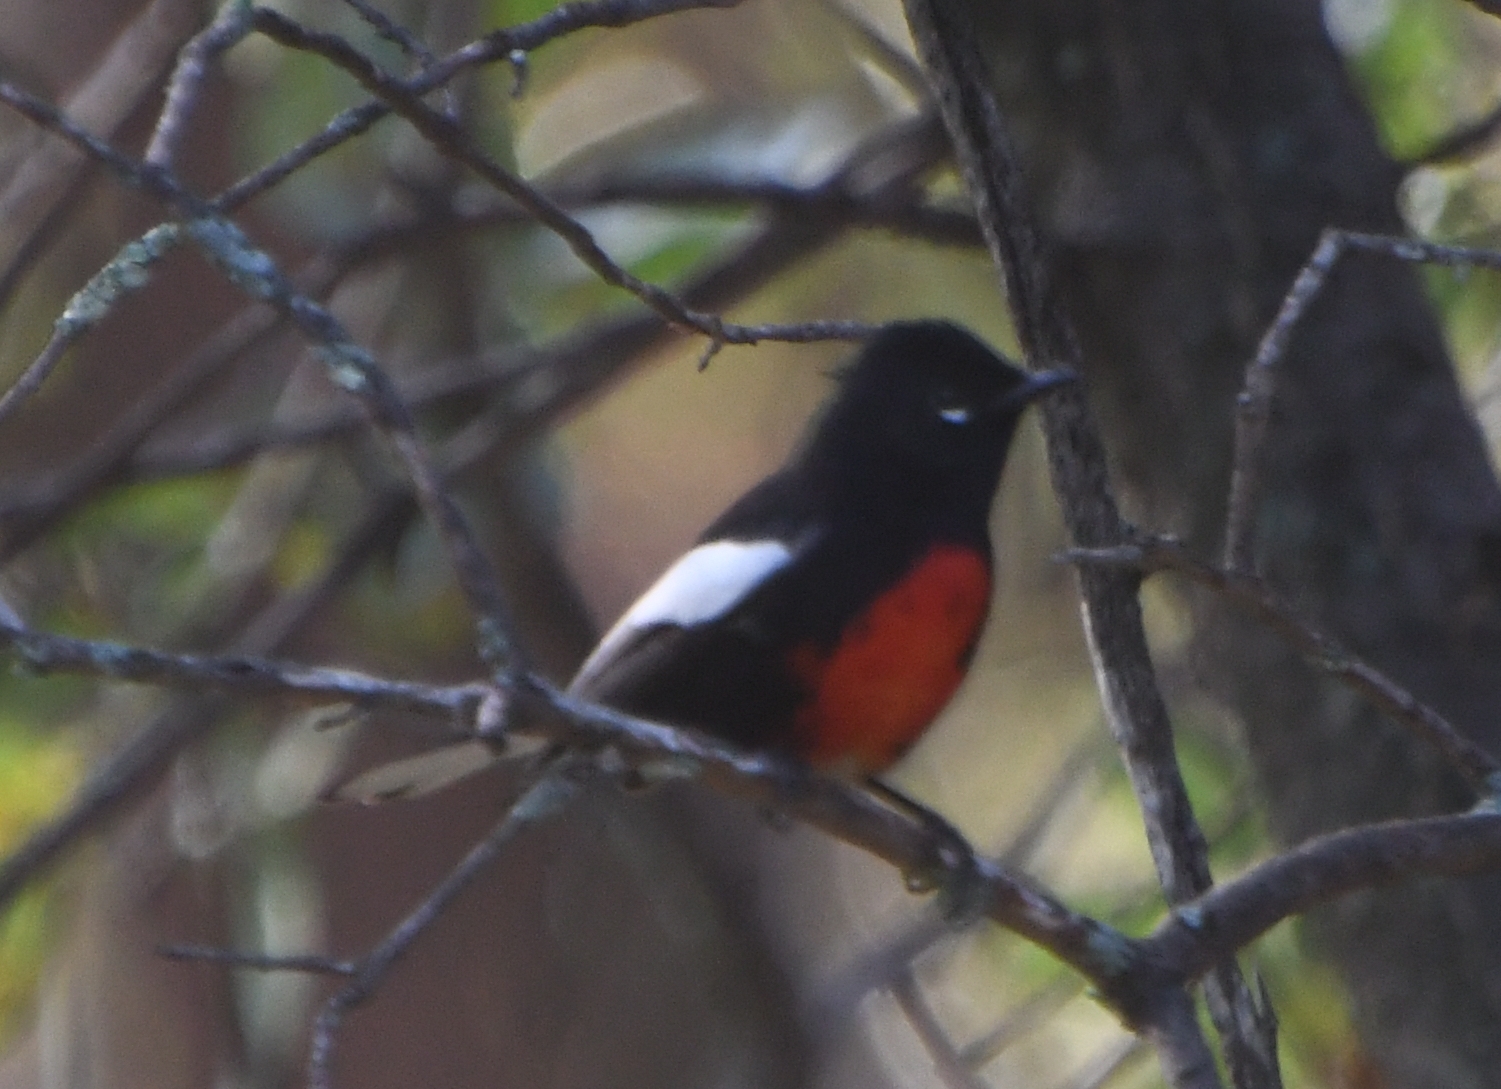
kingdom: Animalia
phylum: Chordata
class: Aves
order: Passeriformes
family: Parulidae
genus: Myioborus
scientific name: Myioborus pictus
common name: Painted whitestart
